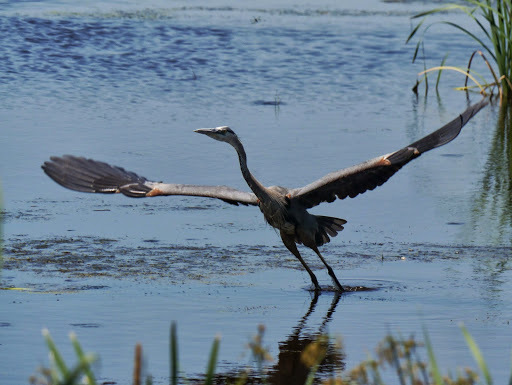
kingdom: Animalia
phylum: Chordata
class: Aves
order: Pelecaniformes
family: Ardeidae
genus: Ardea
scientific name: Ardea herodias
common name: Great blue heron
